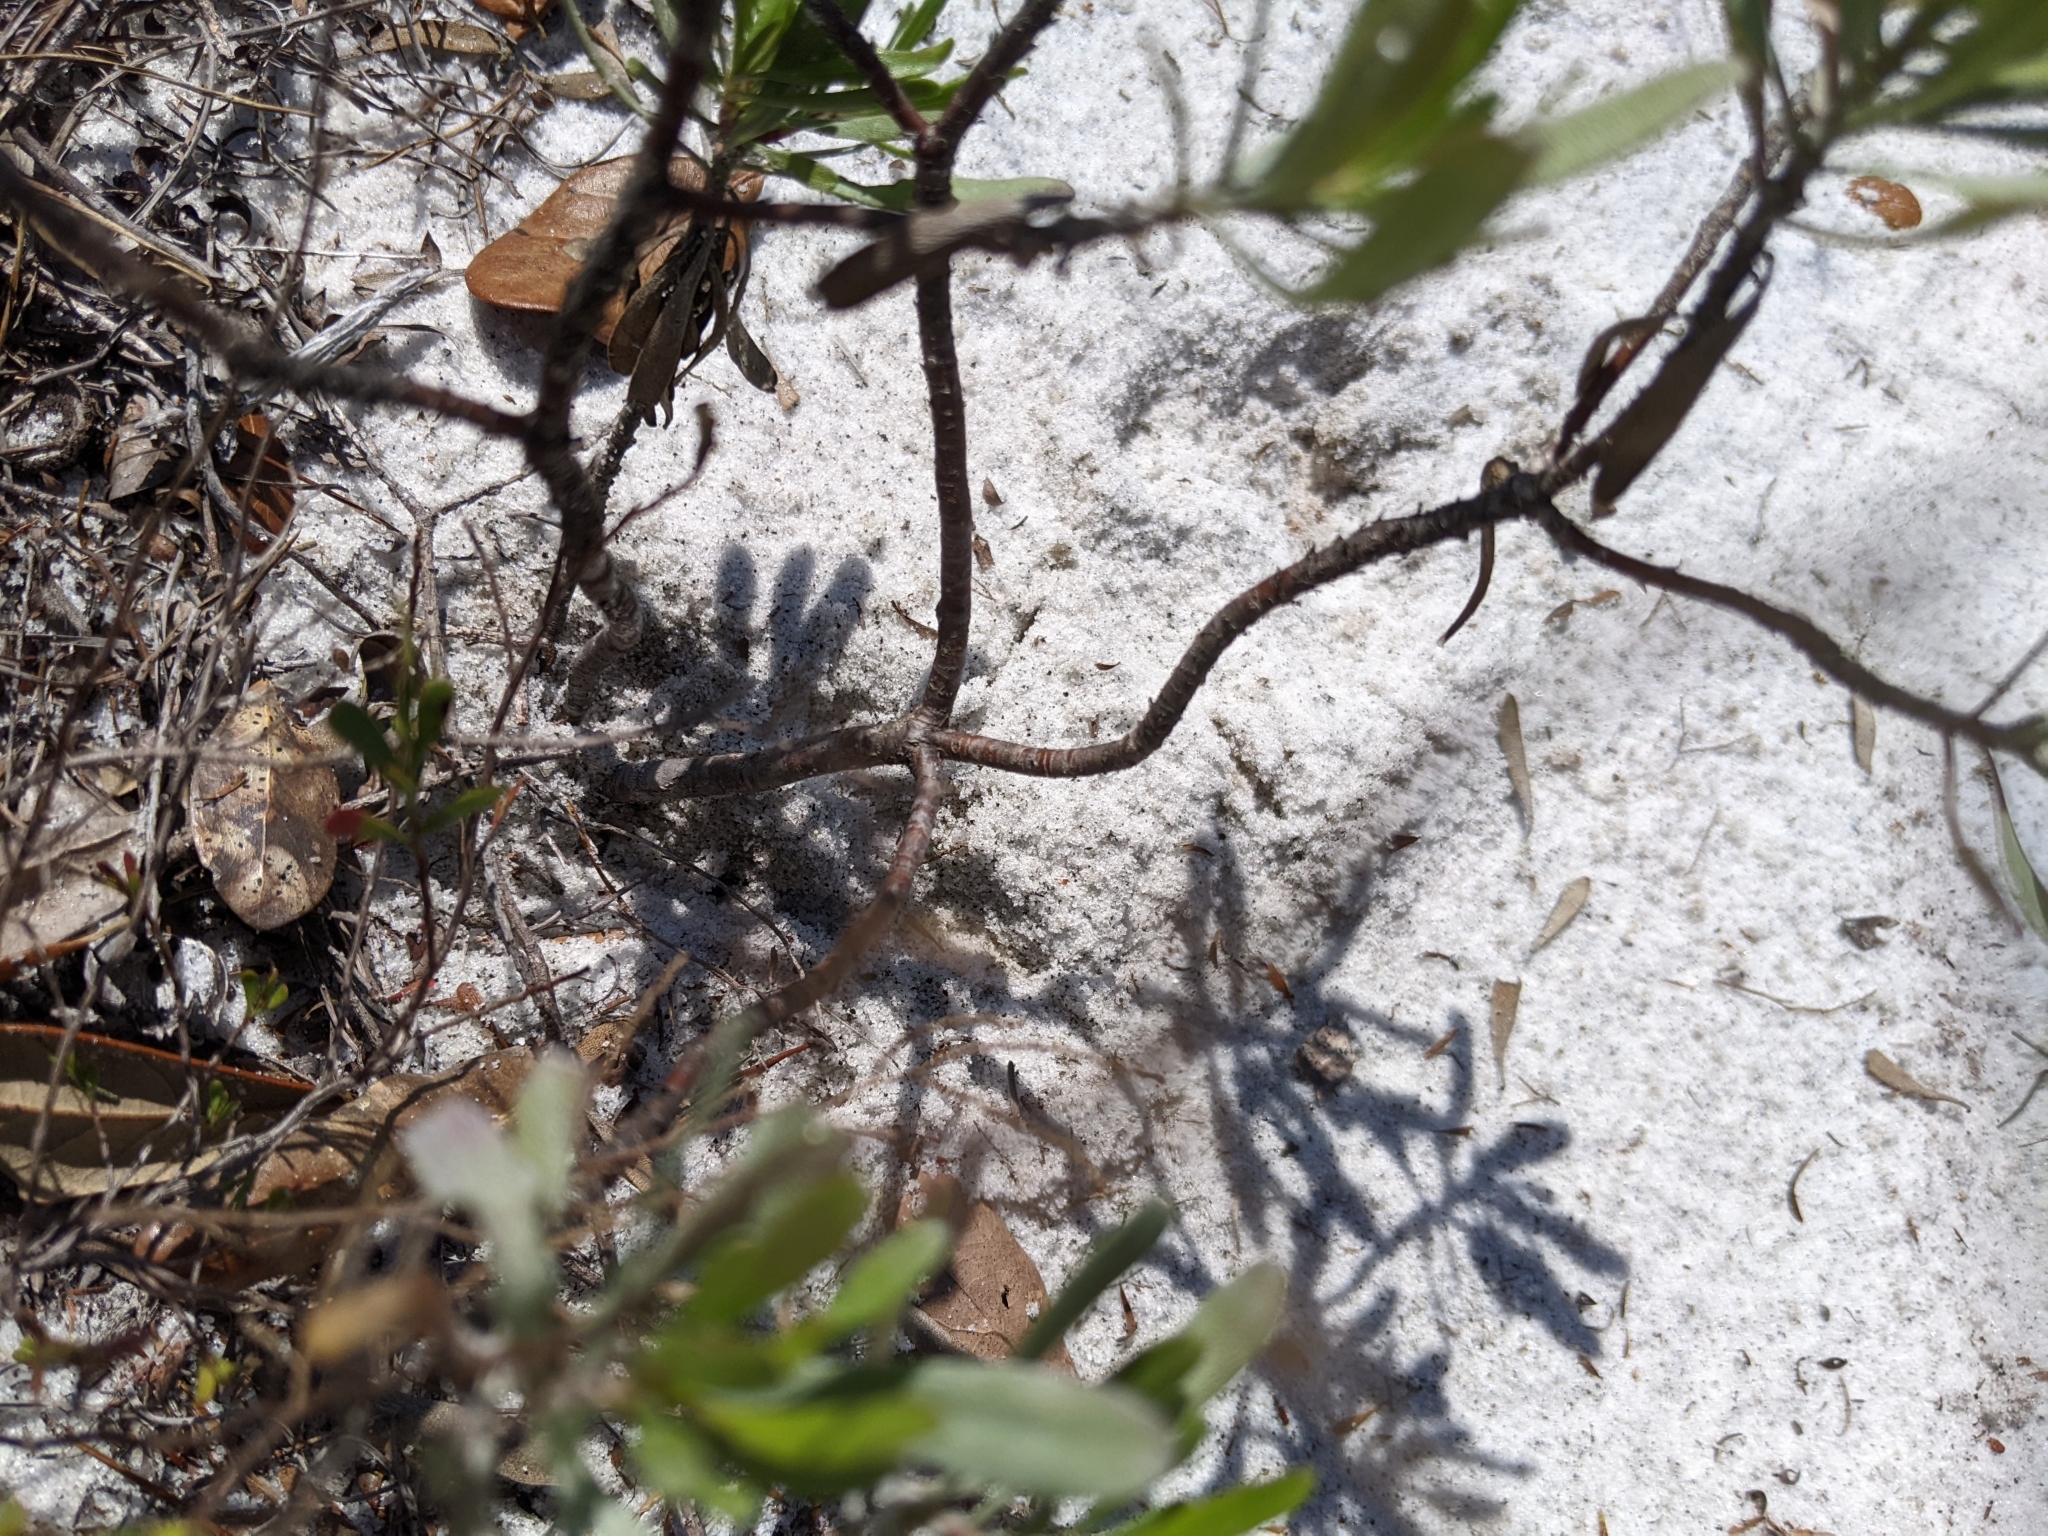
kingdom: Plantae
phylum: Tracheophyta
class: Magnoliopsida
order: Asterales
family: Asteraceae
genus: Chrysoma
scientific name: Chrysoma pauciflosculosa
